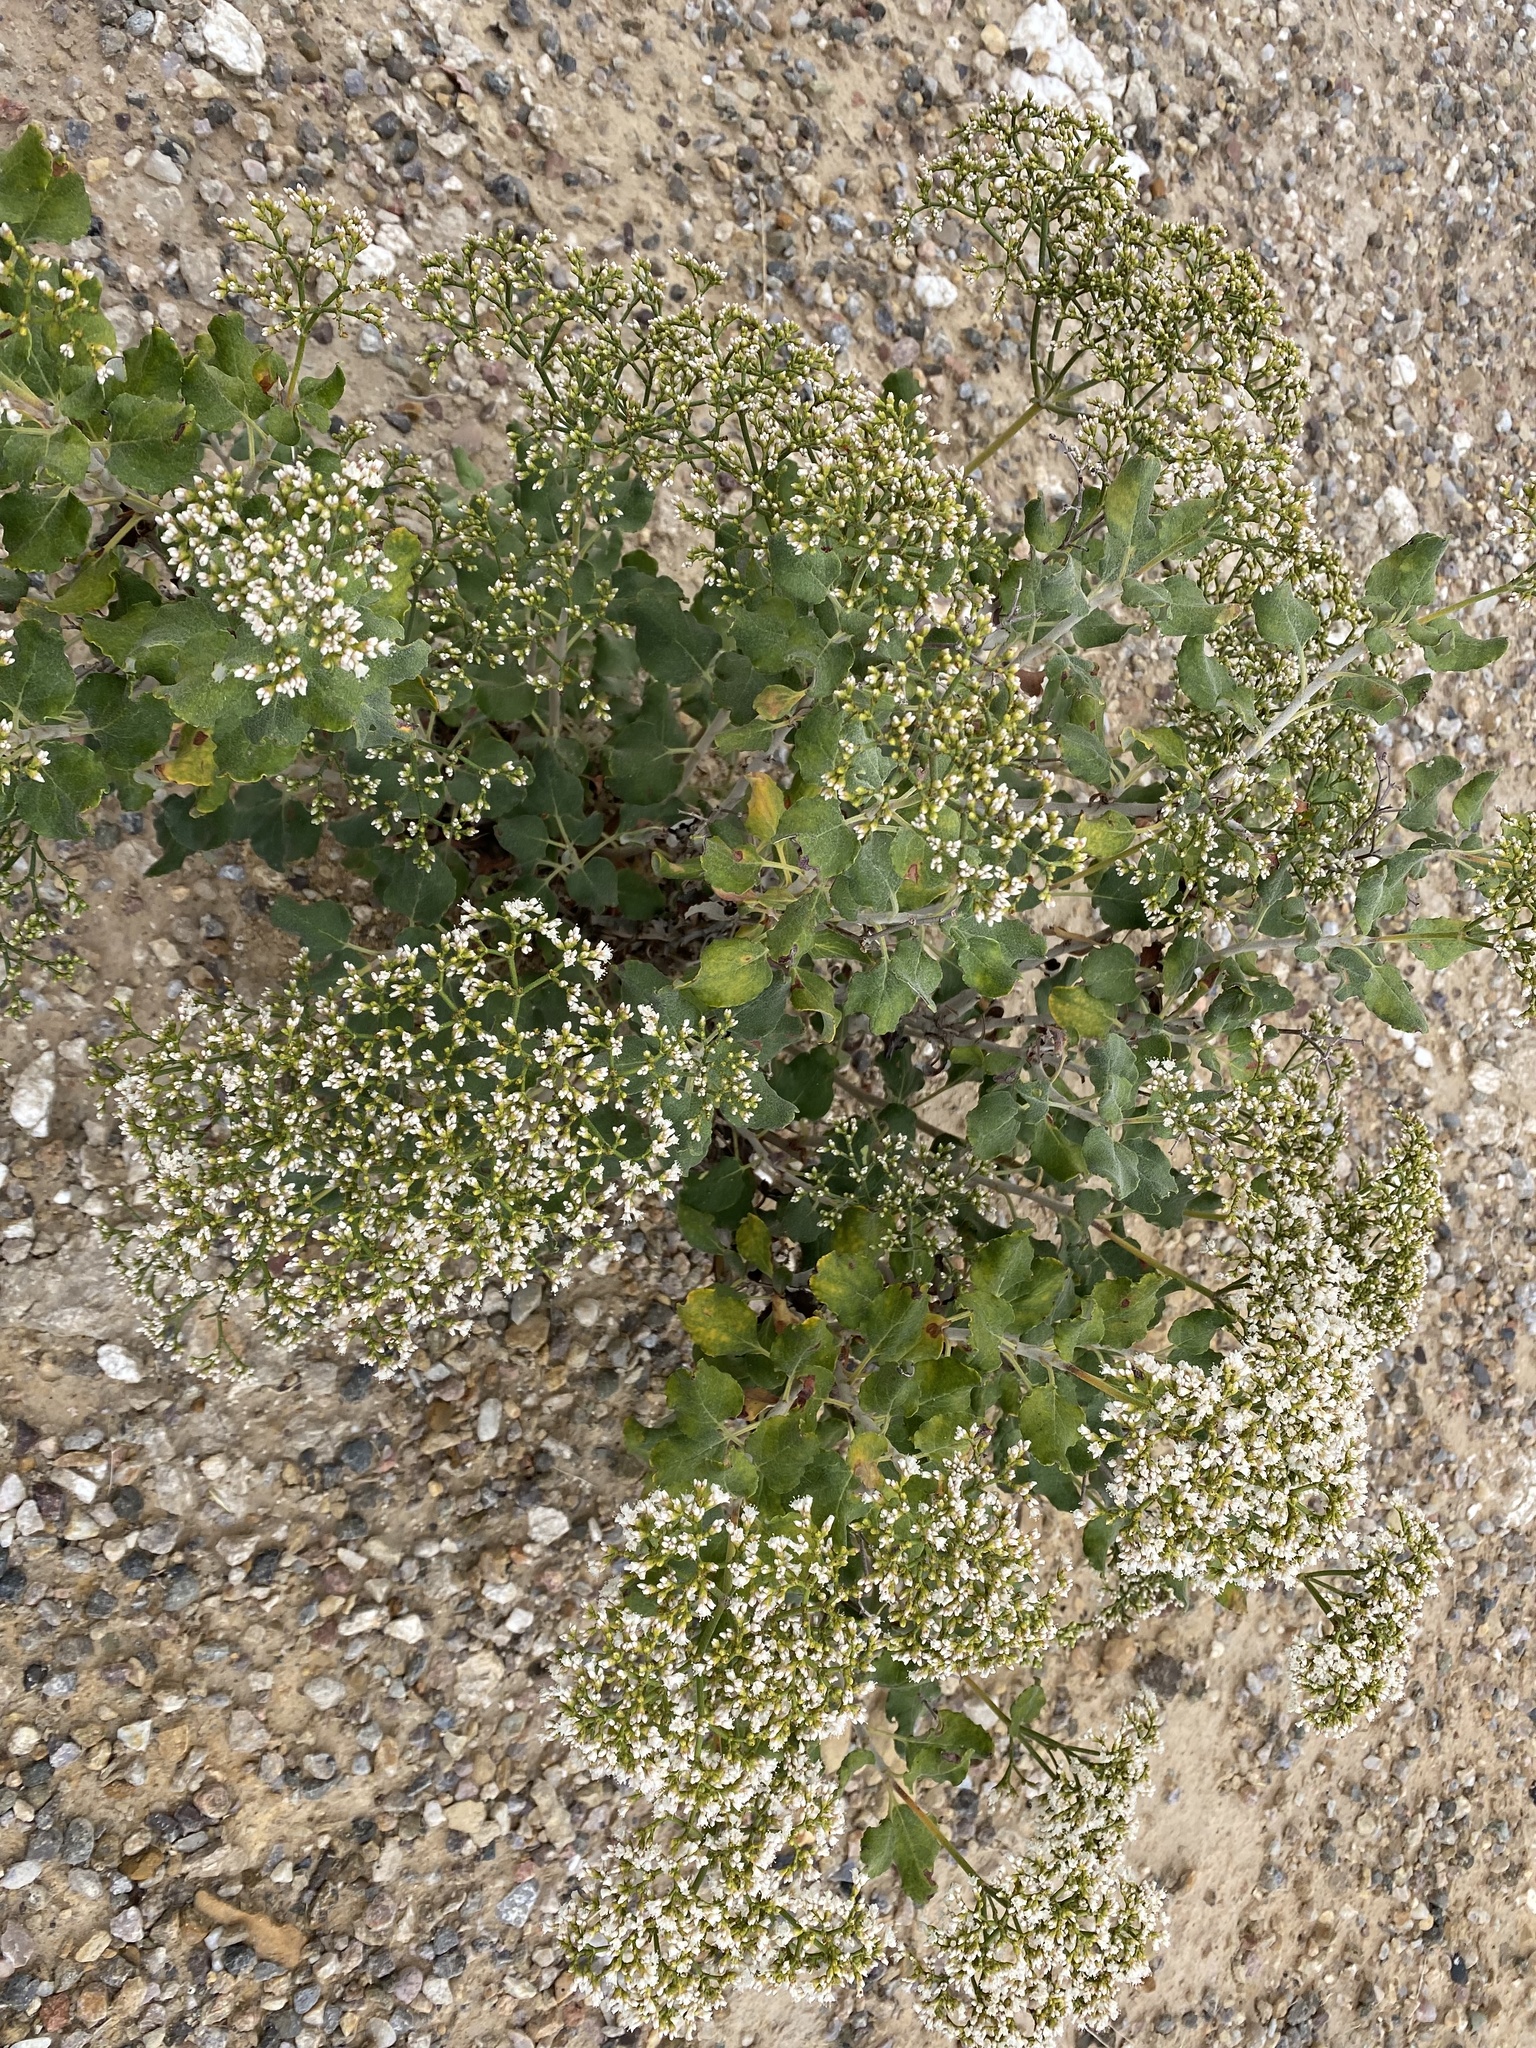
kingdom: Plantae
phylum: Tracheophyta
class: Magnoliopsida
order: Caryophyllales
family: Polygonaceae
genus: Eriogonum
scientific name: Eriogonum corymbosum
